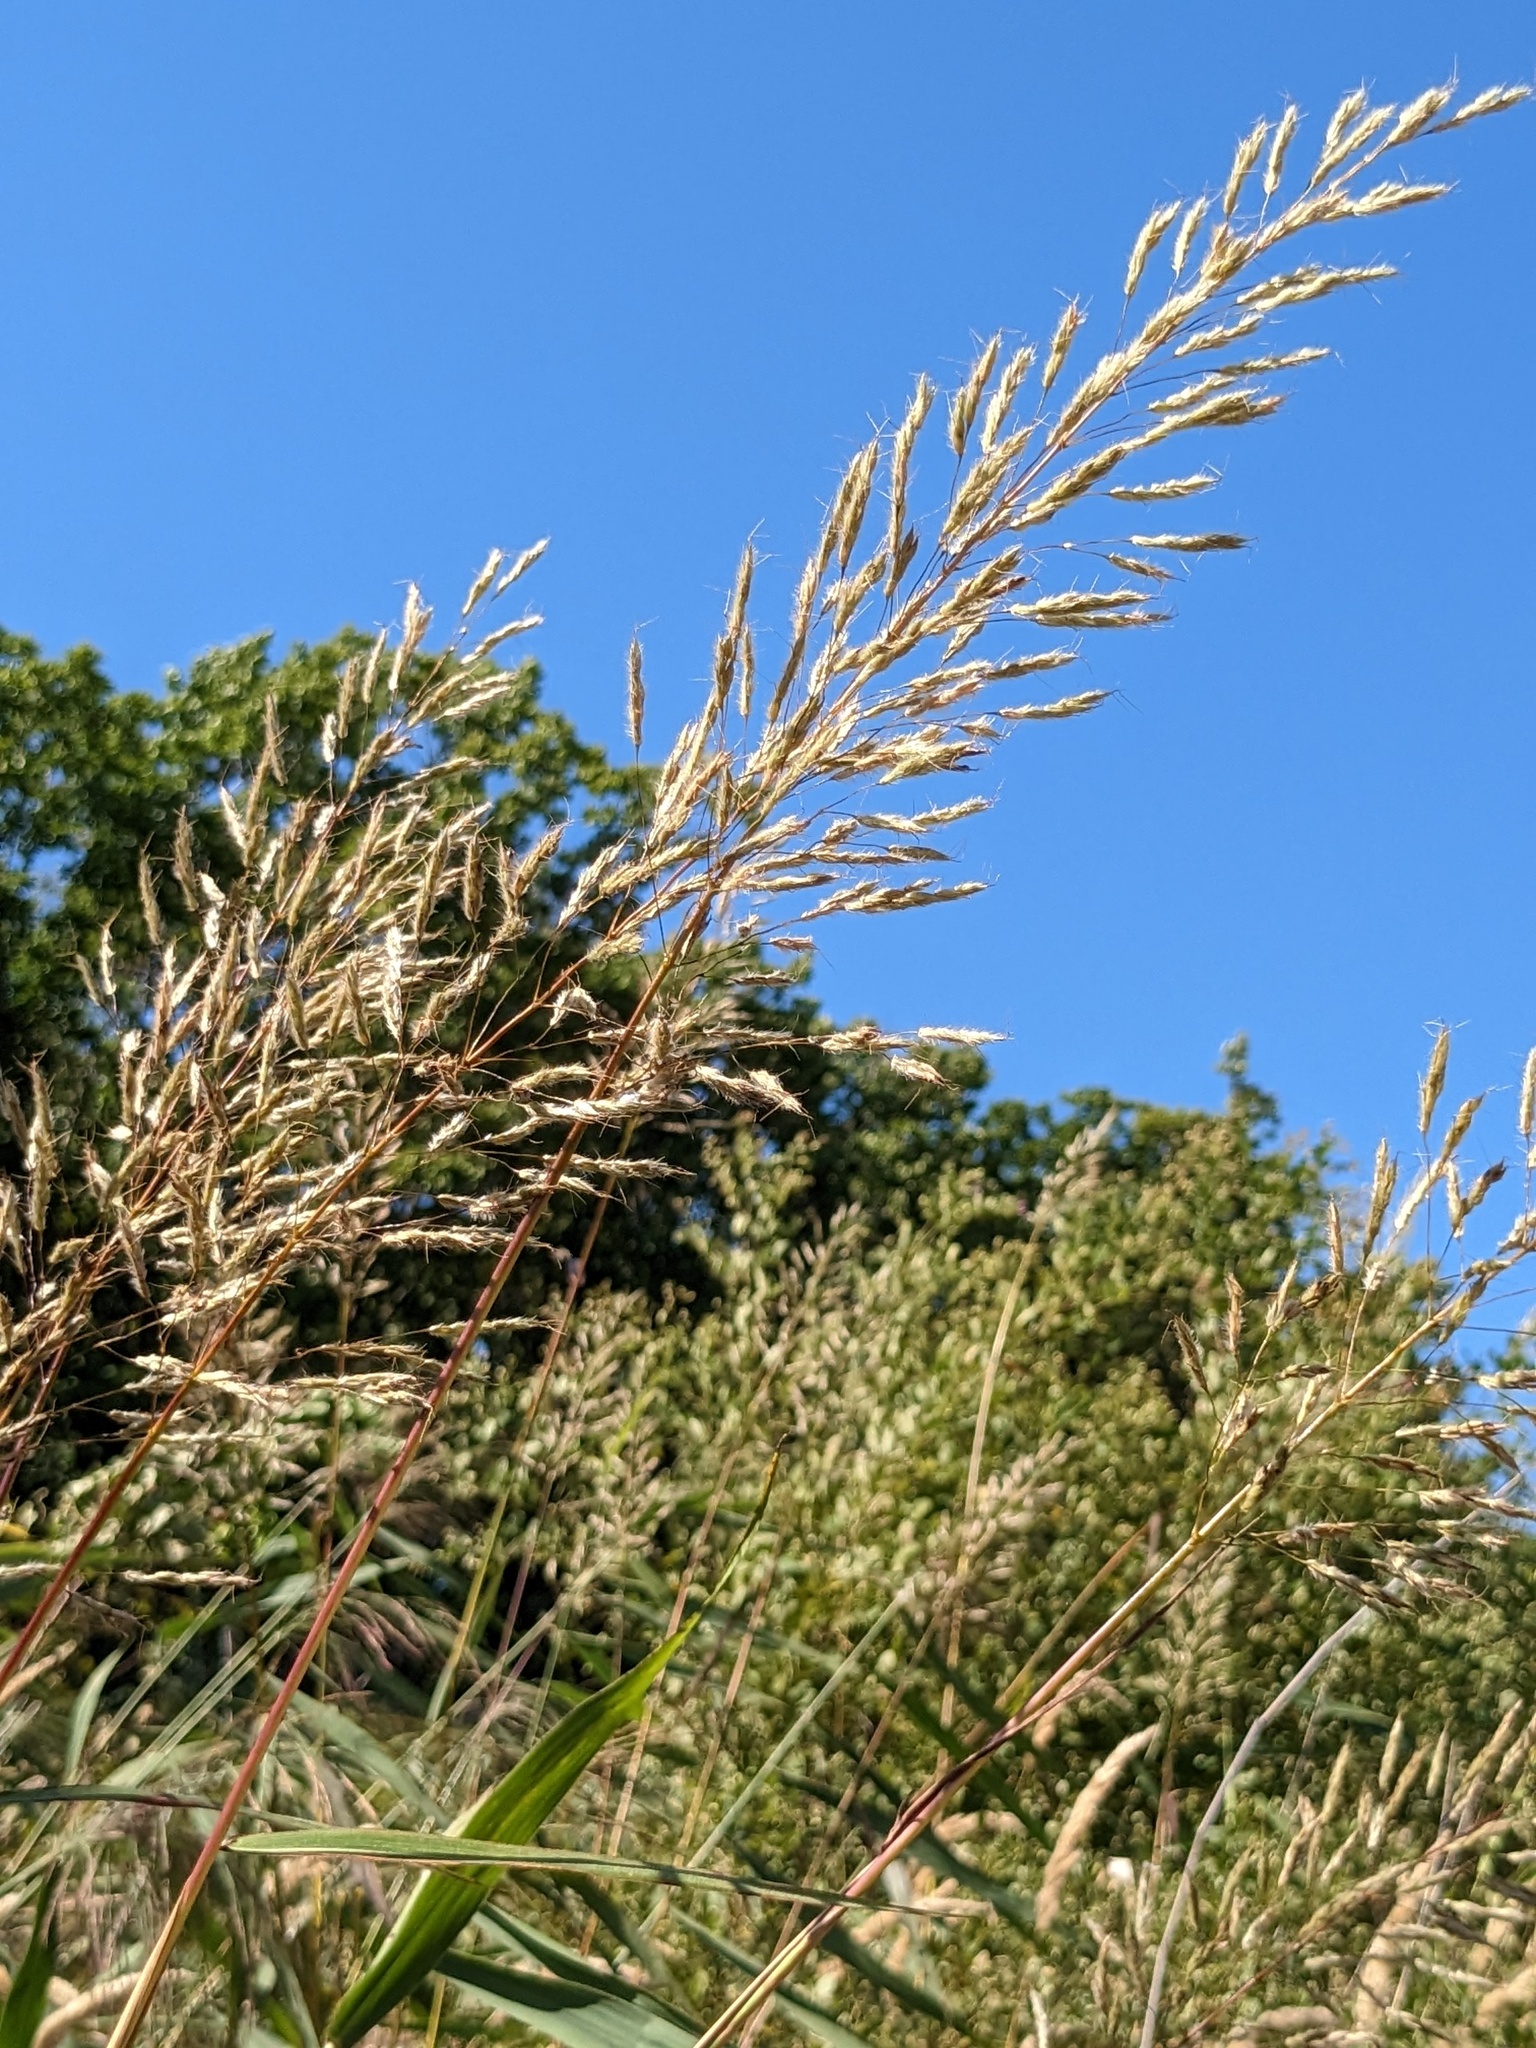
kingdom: Plantae
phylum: Tracheophyta
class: Liliopsida
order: Poales
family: Poaceae
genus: Spodiopogon
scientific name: Spodiopogon sibiricus
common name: Siberian graybeard
